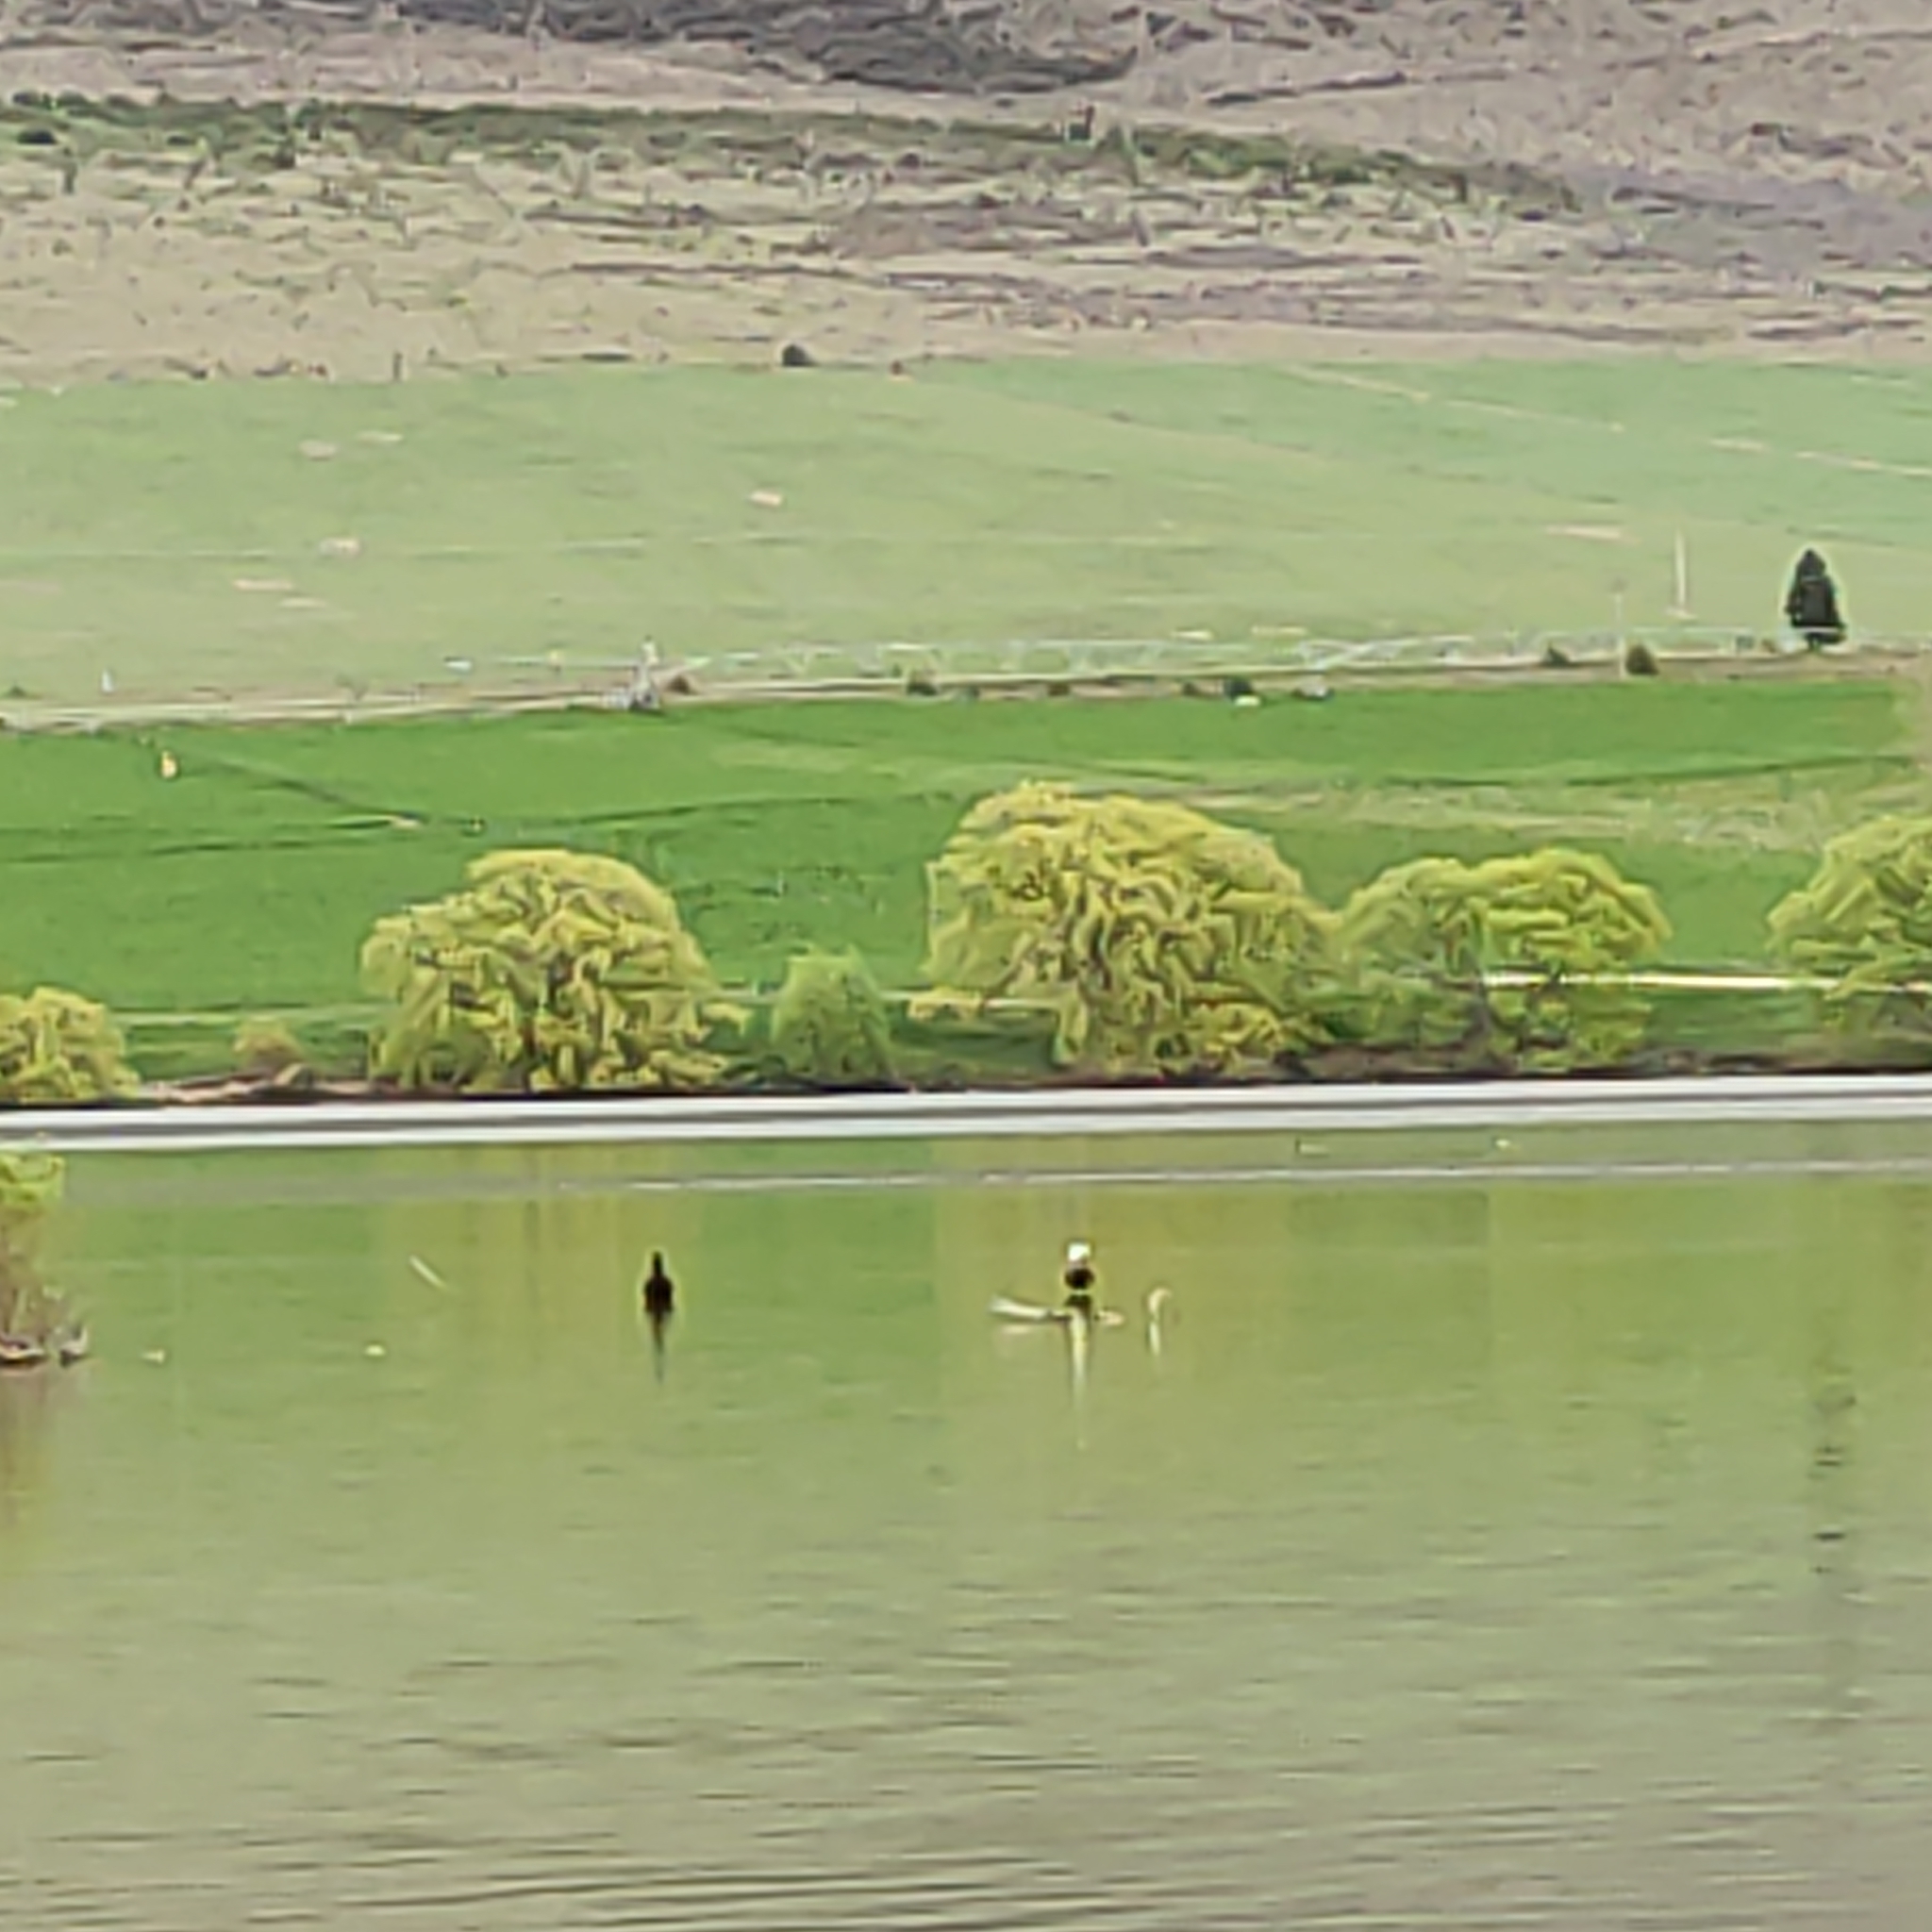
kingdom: Animalia
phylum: Chordata
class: Aves
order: Anseriformes
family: Anatidae
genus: Tadorna
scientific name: Tadorna variegata
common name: Paradise shelduck
